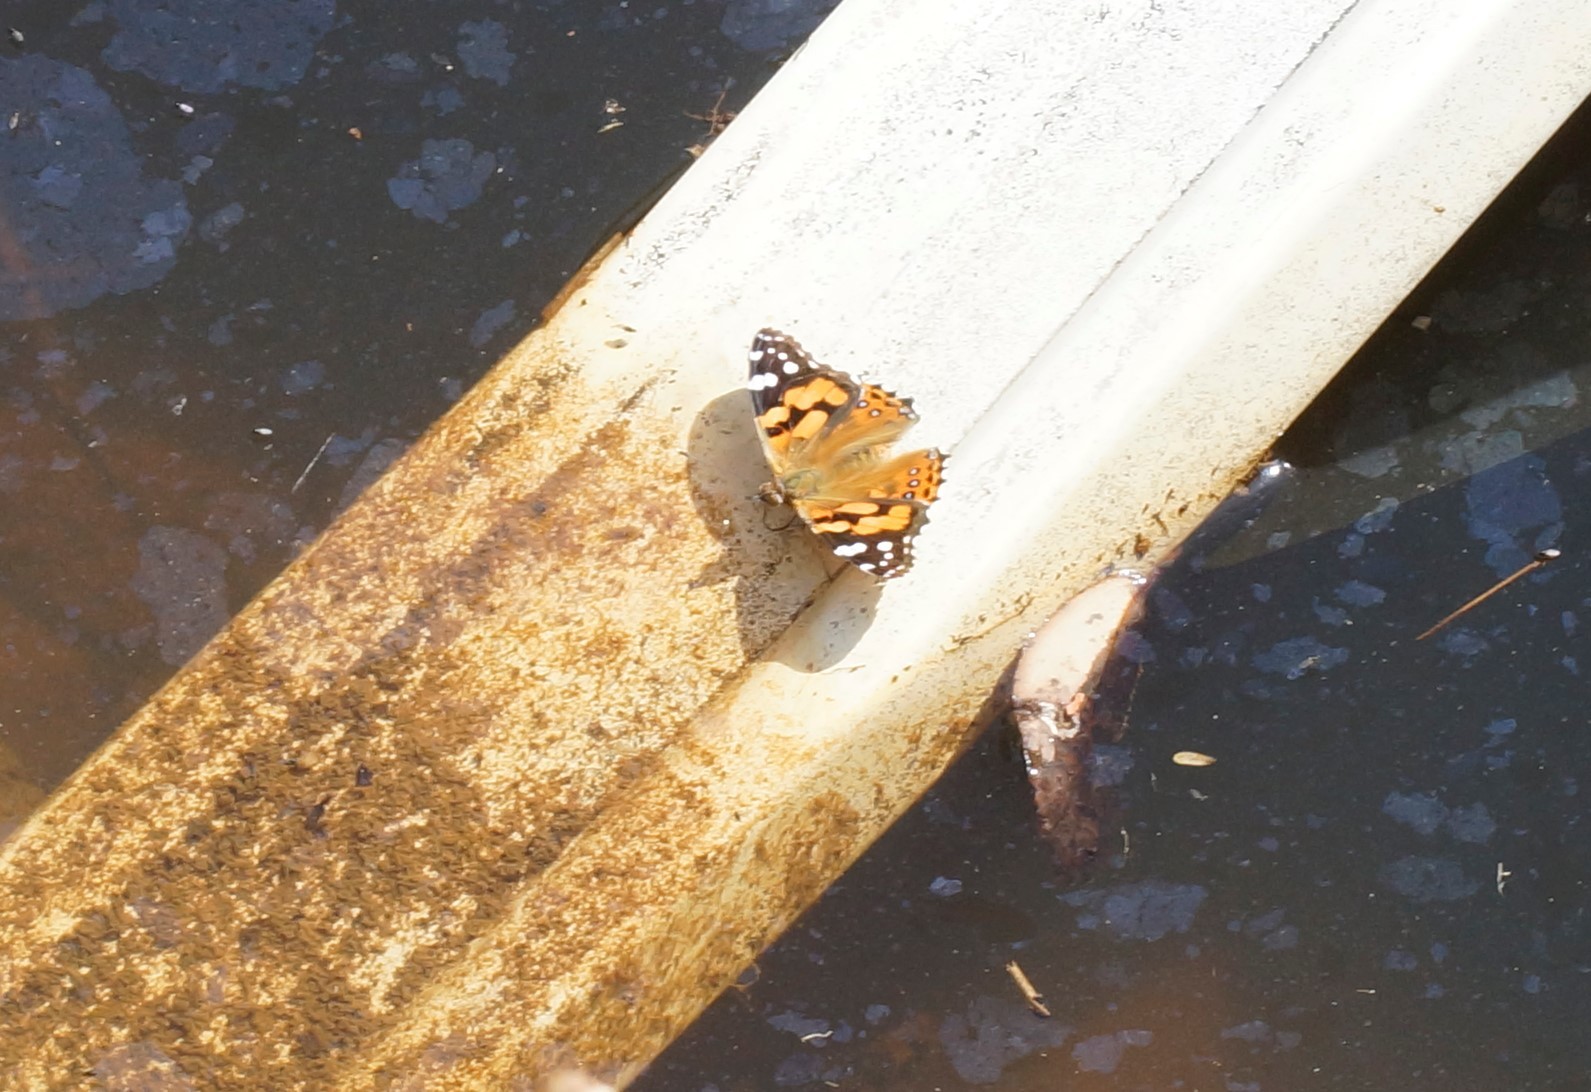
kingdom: Animalia
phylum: Arthropoda
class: Insecta
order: Lepidoptera
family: Nymphalidae
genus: Vanessa
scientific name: Vanessa kershawi
